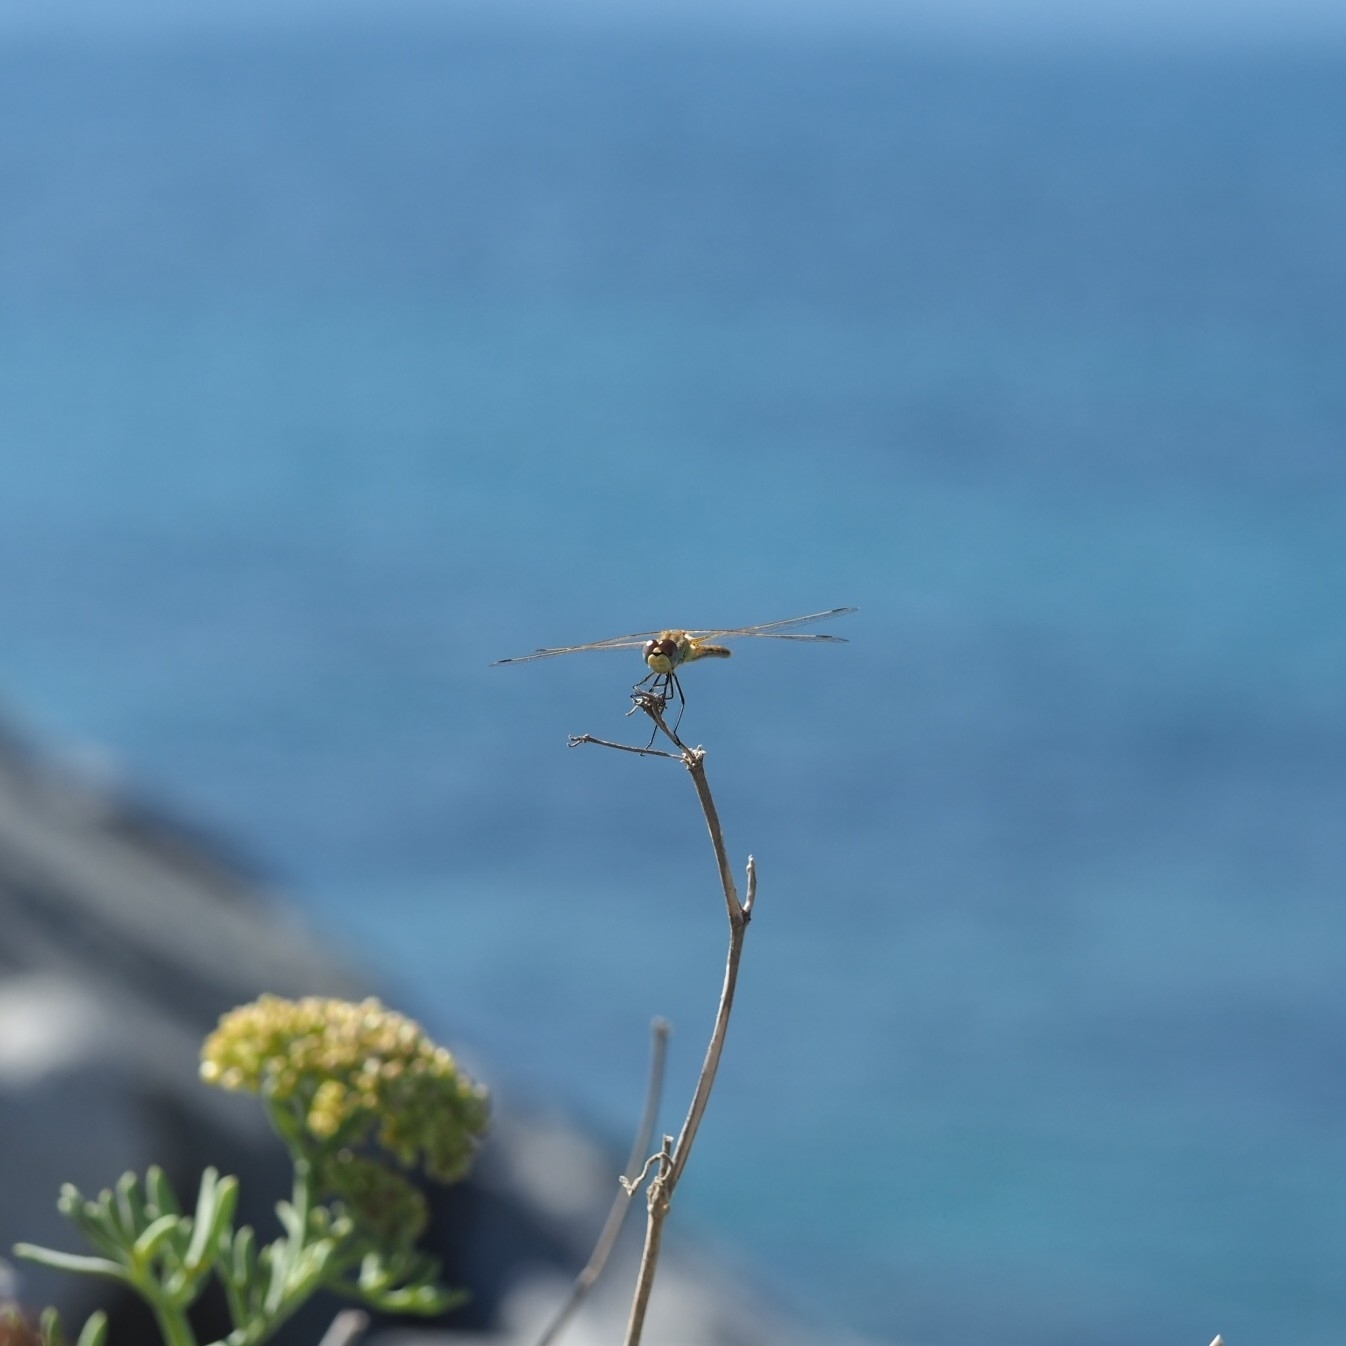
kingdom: Animalia
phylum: Arthropoda
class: Insecta
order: Odonata
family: Libellulidae
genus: Sympetrum
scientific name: Sympetrum fonscolombii
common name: Red-veined darter
